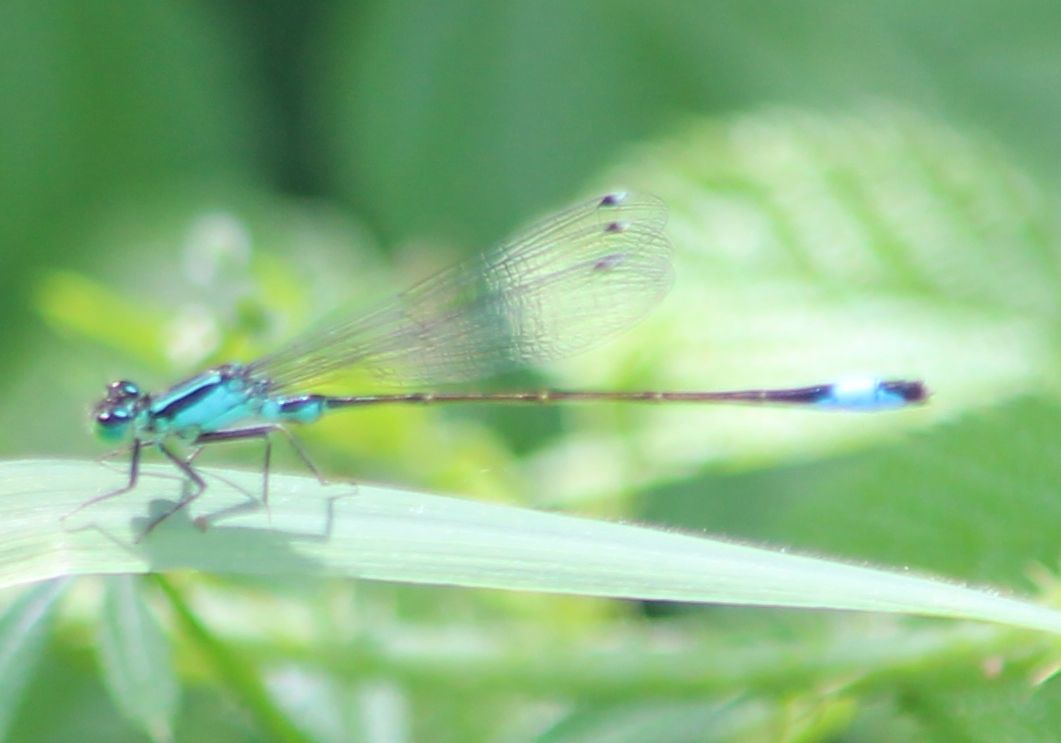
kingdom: Animalia
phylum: Arthropoda
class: Insecta
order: Odonata
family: Coenagrionidae
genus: Ischnura
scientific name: Ischnura elegans
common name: Blue-tailed damselfly
